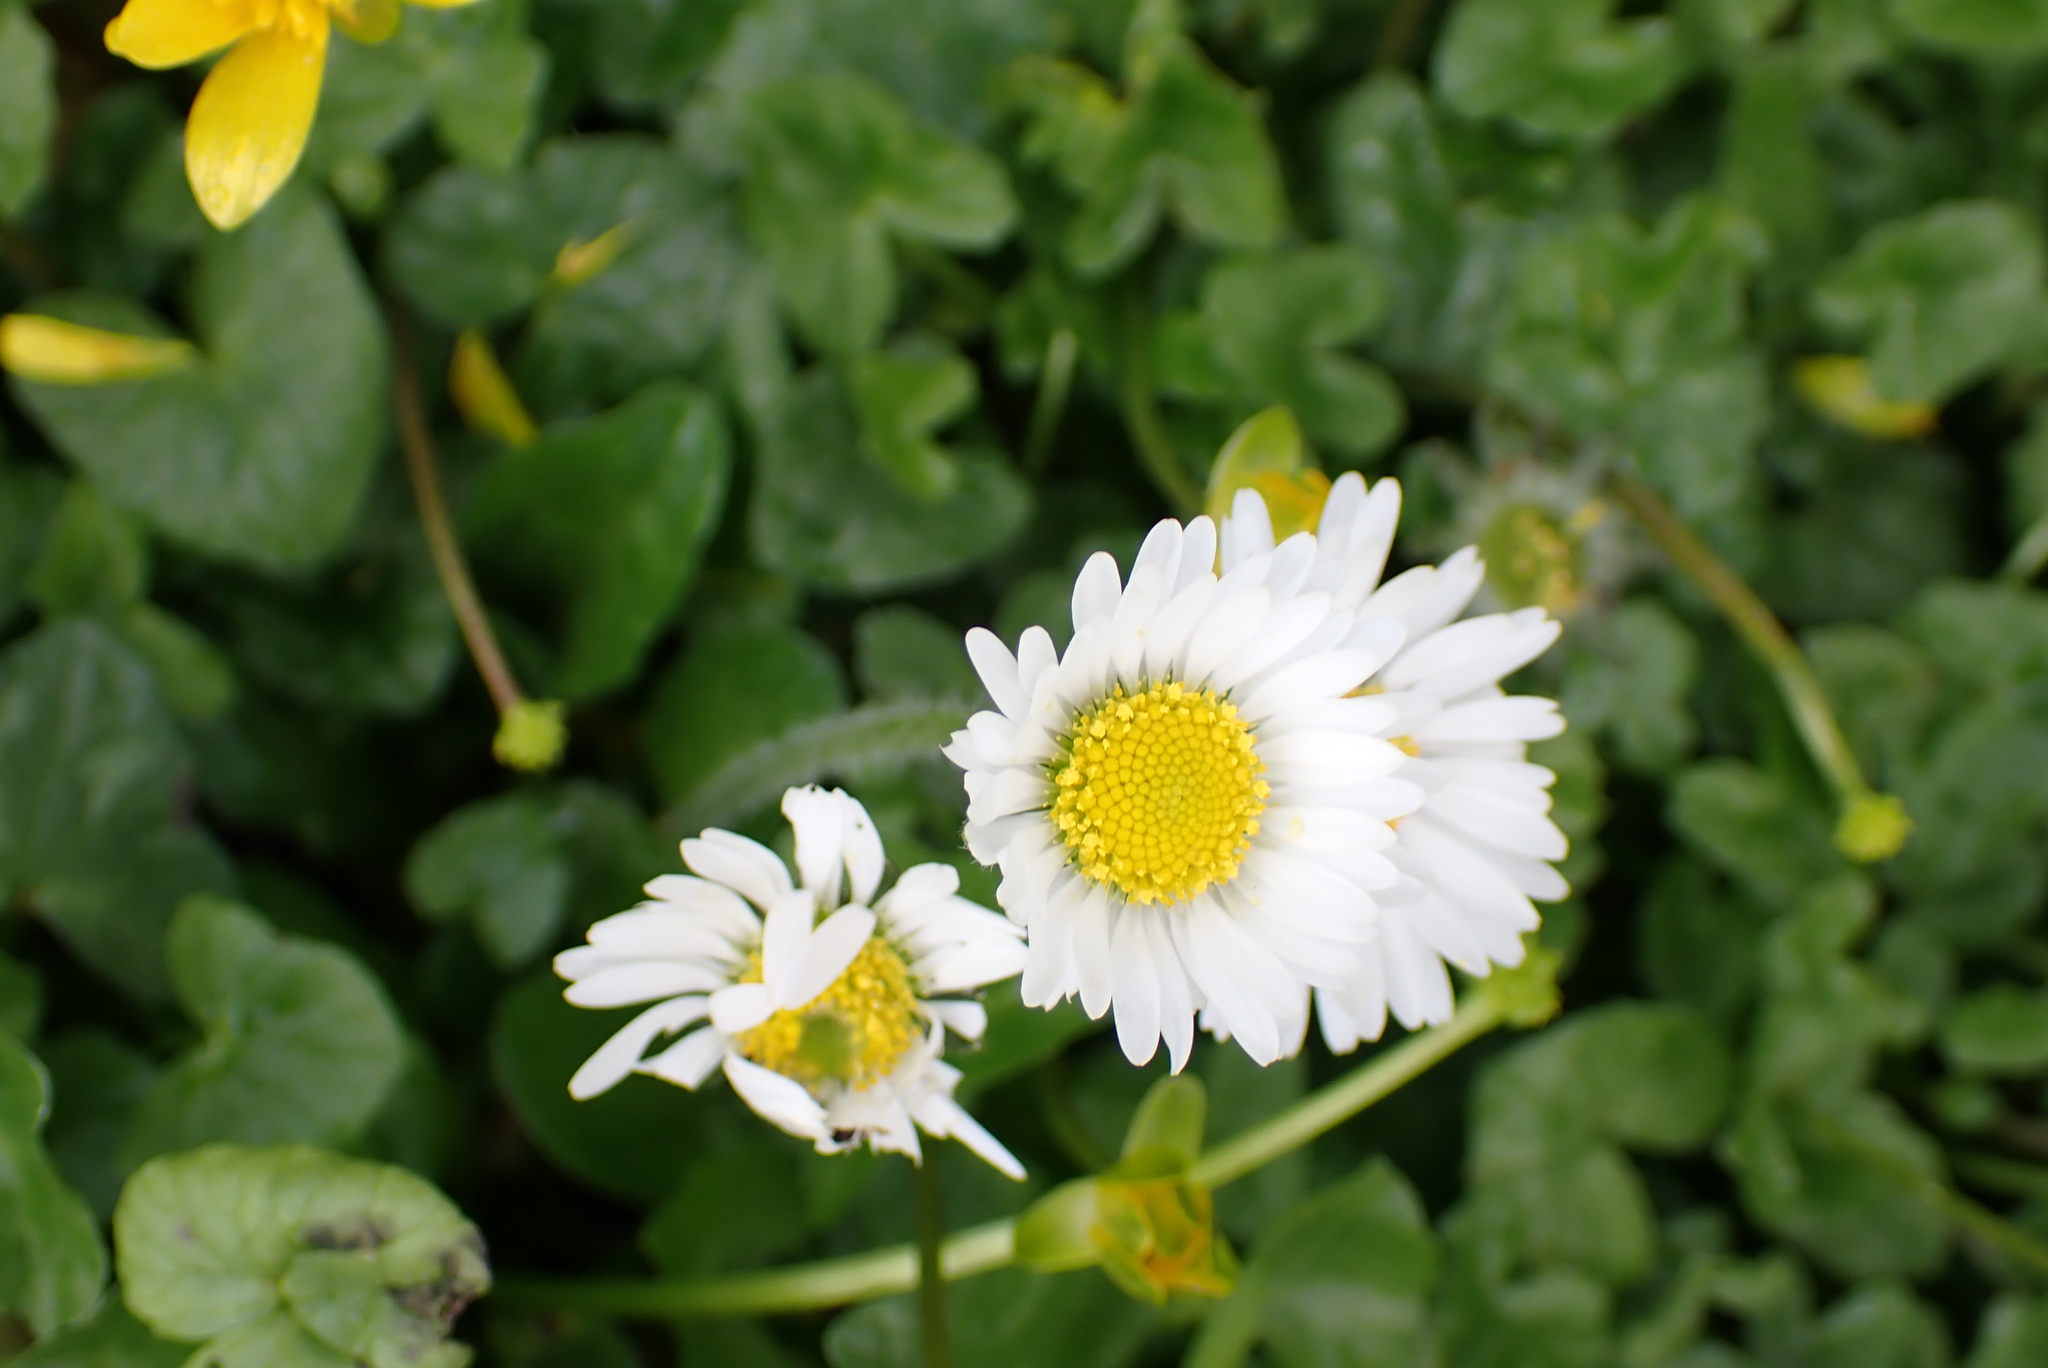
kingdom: Plantae
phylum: Tracheophyta
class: Magnoliopsida
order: Asterales
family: Asteraceae
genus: Bellis
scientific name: Bellis perennis
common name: Lawndaisy
